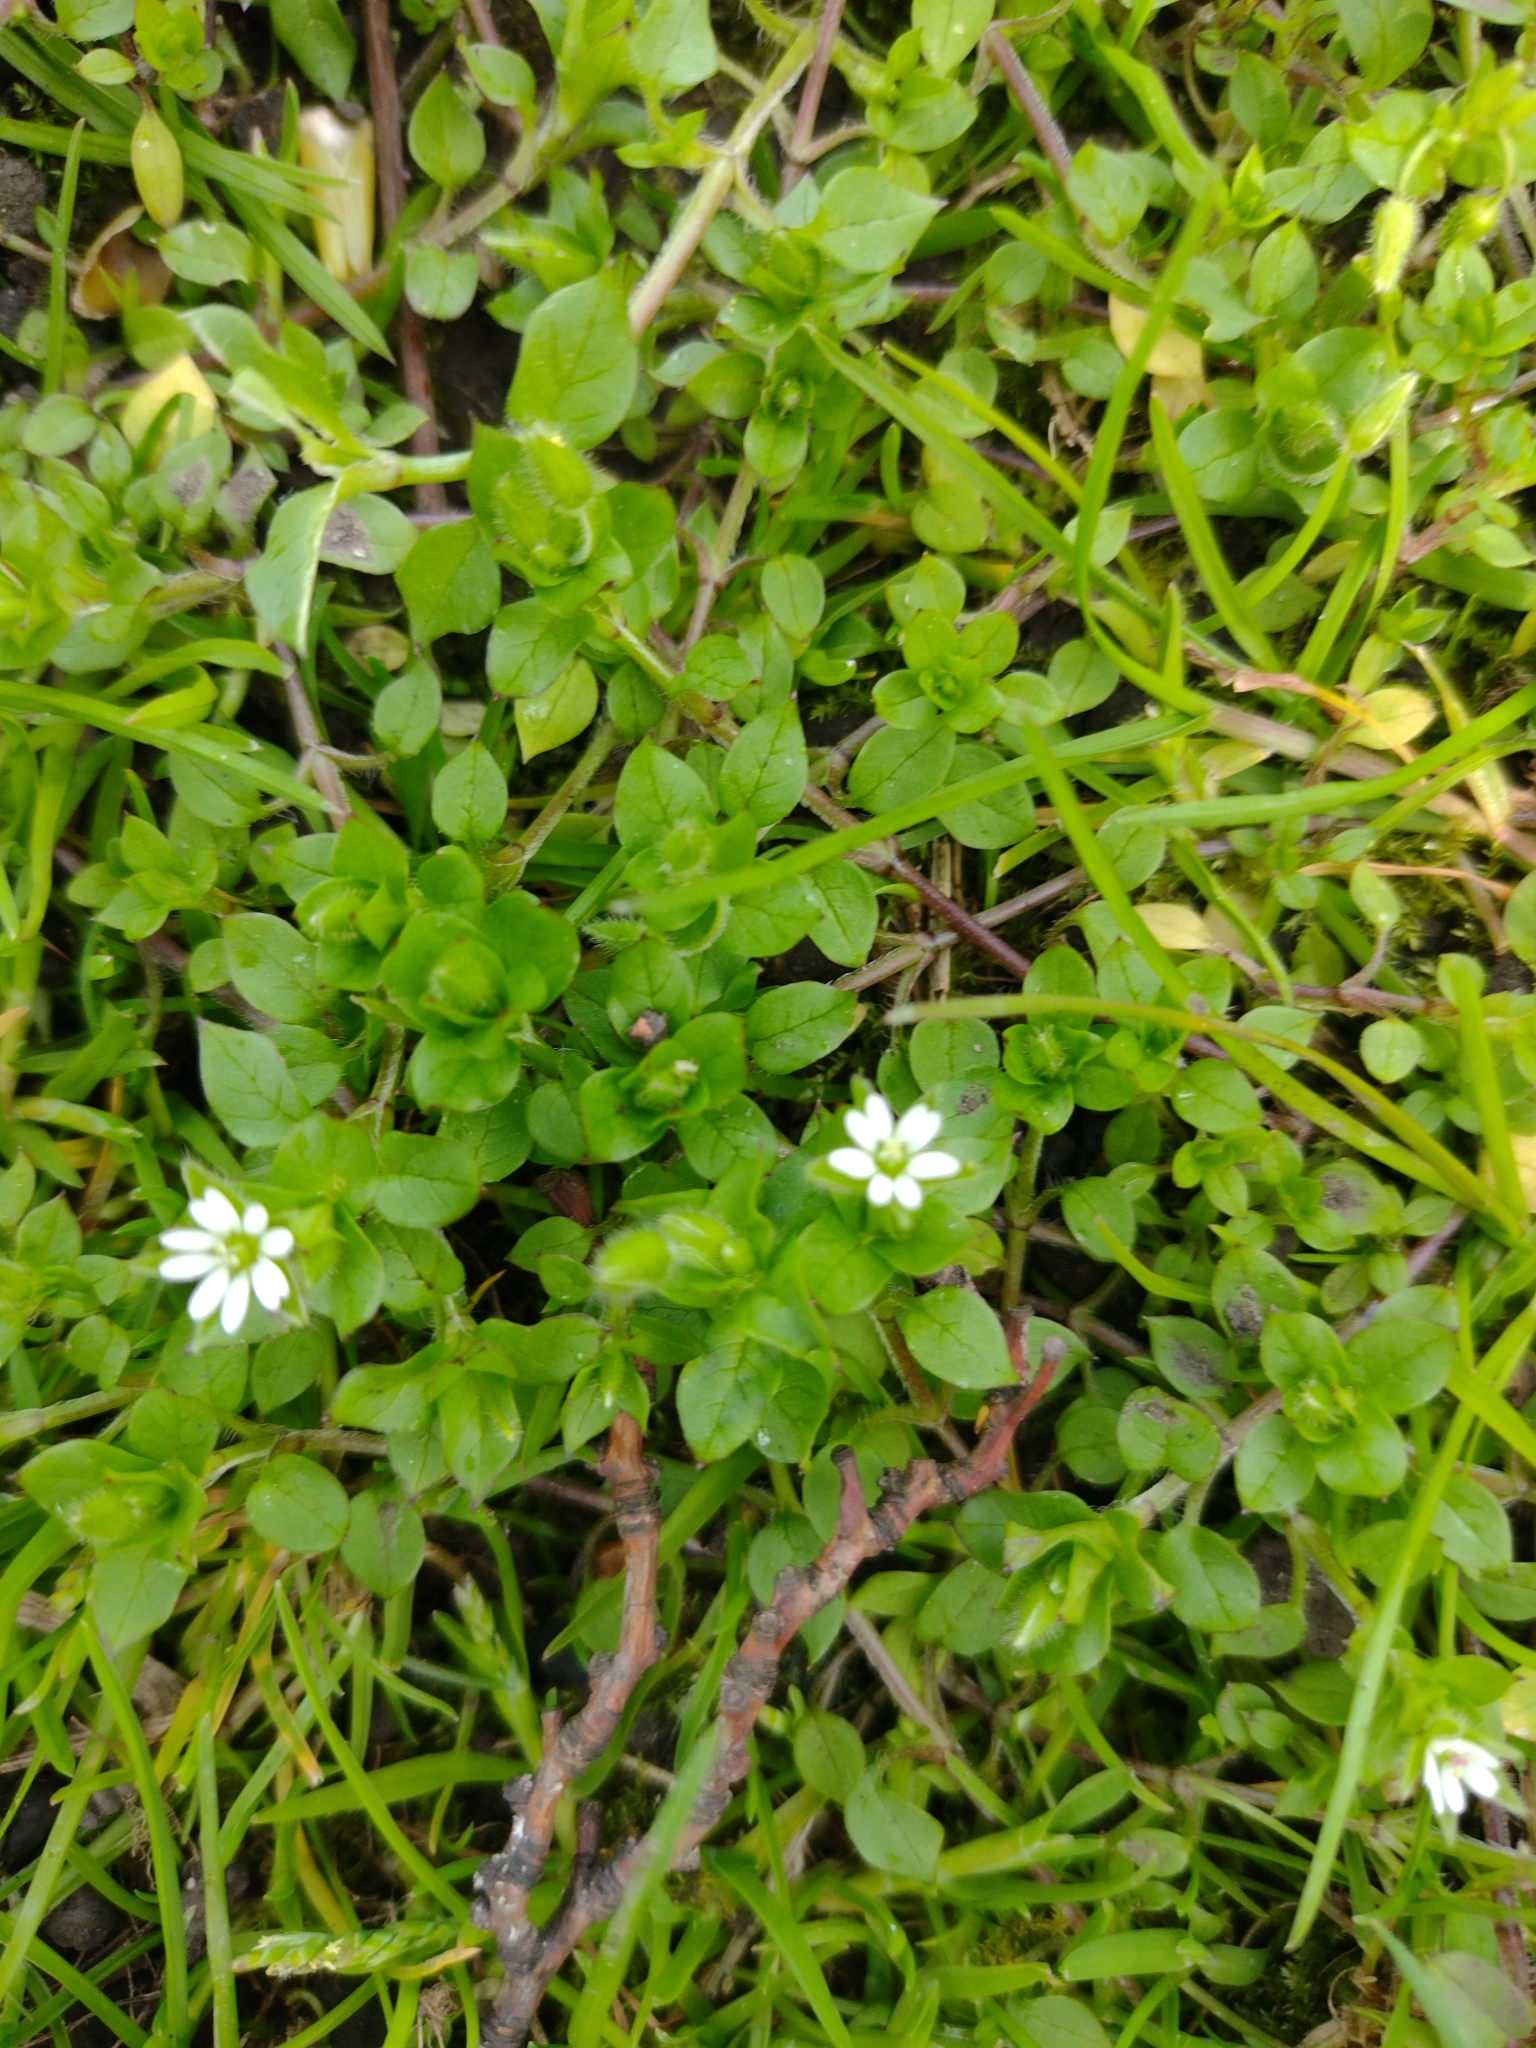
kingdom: Plantae
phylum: Tracheophyta
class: Magnoliopsida
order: Caryophyllales
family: Caryophyllaceae
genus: Stellaria
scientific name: Stellaria media
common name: Common chickweed
